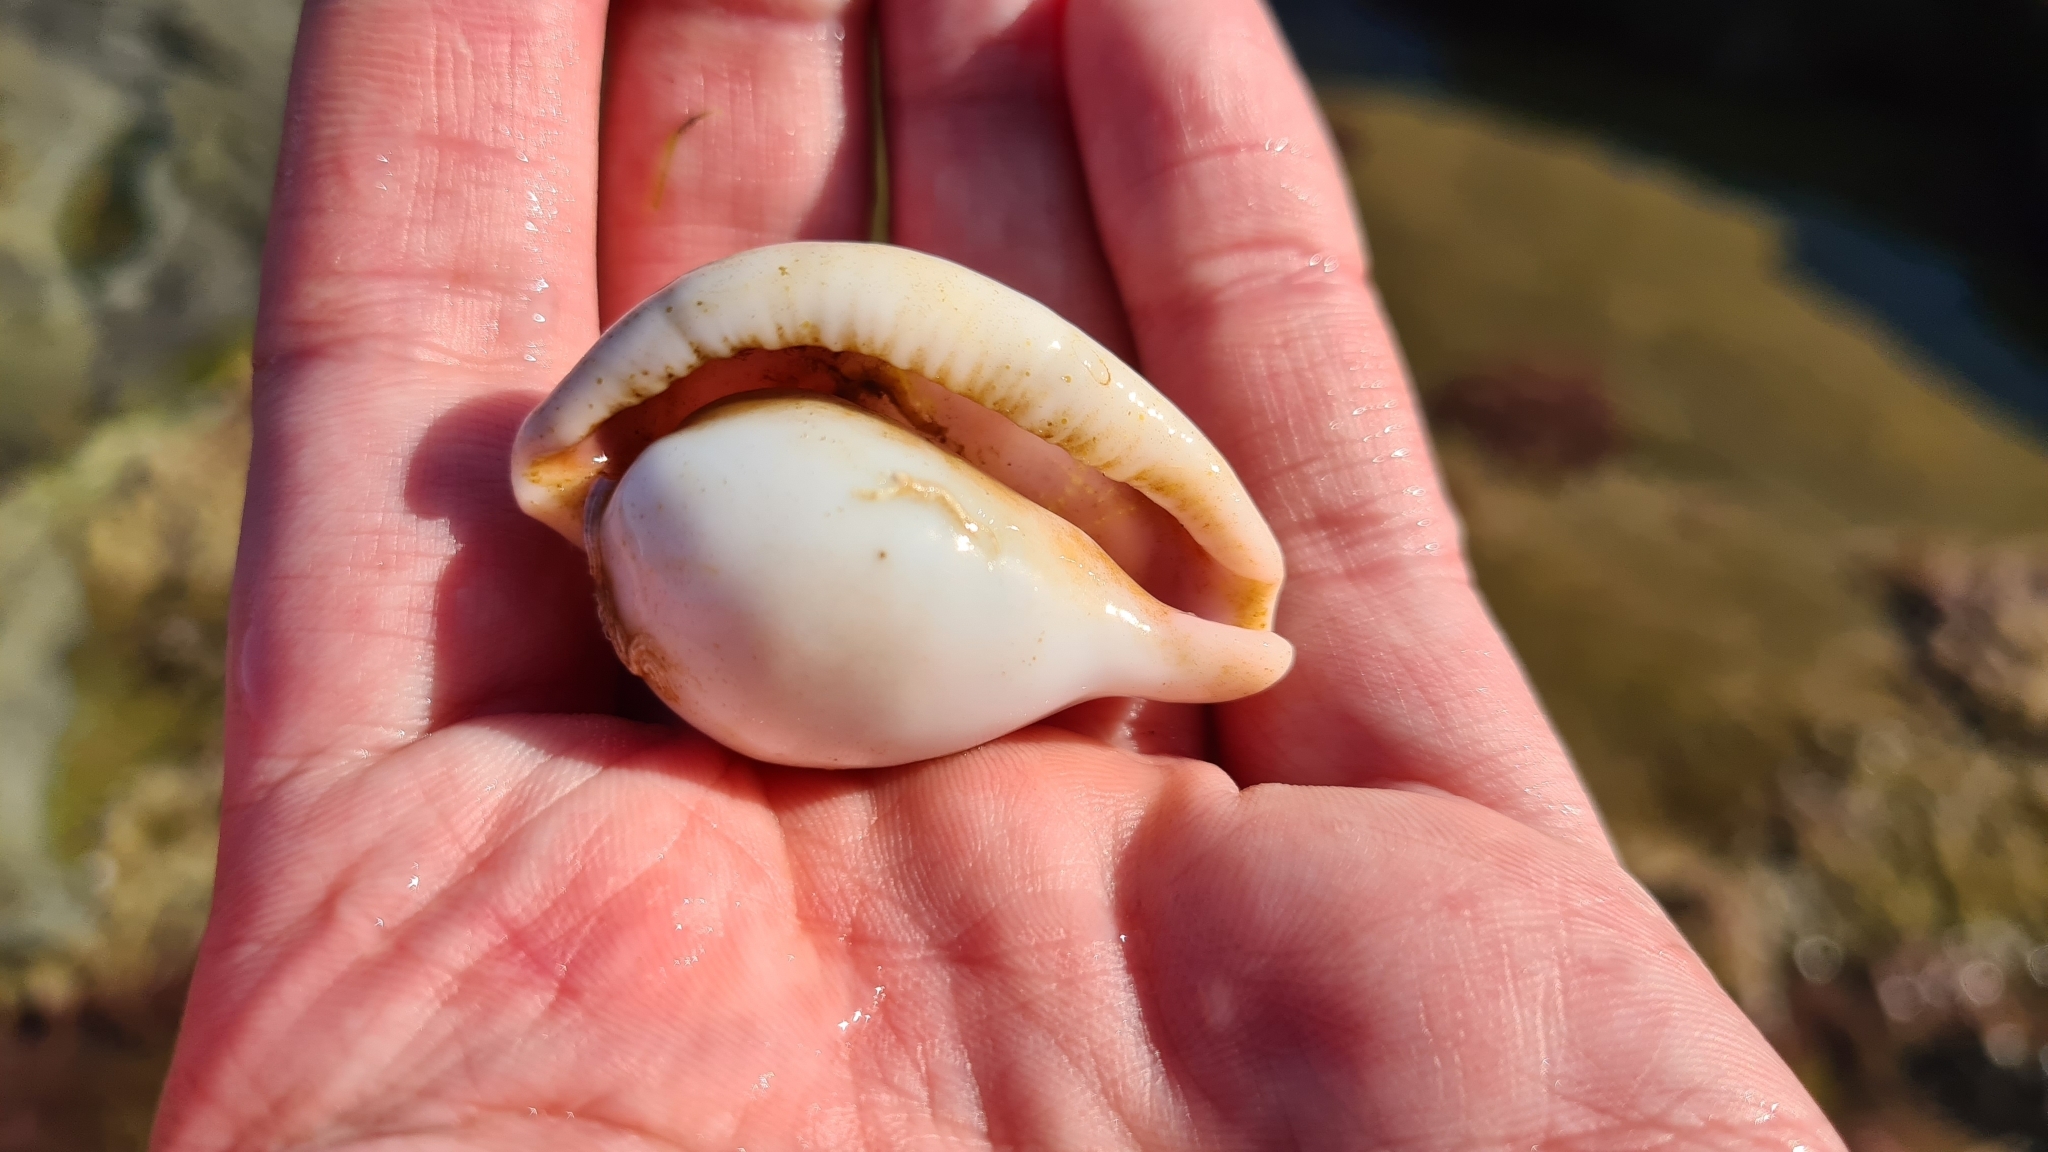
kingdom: Animalia
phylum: Mollusca
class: Gastropoda
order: Littorinimorpha
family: Ovulidae
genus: Ovula
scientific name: Ovula costellata
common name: Pink-mouthed egg cowrie
